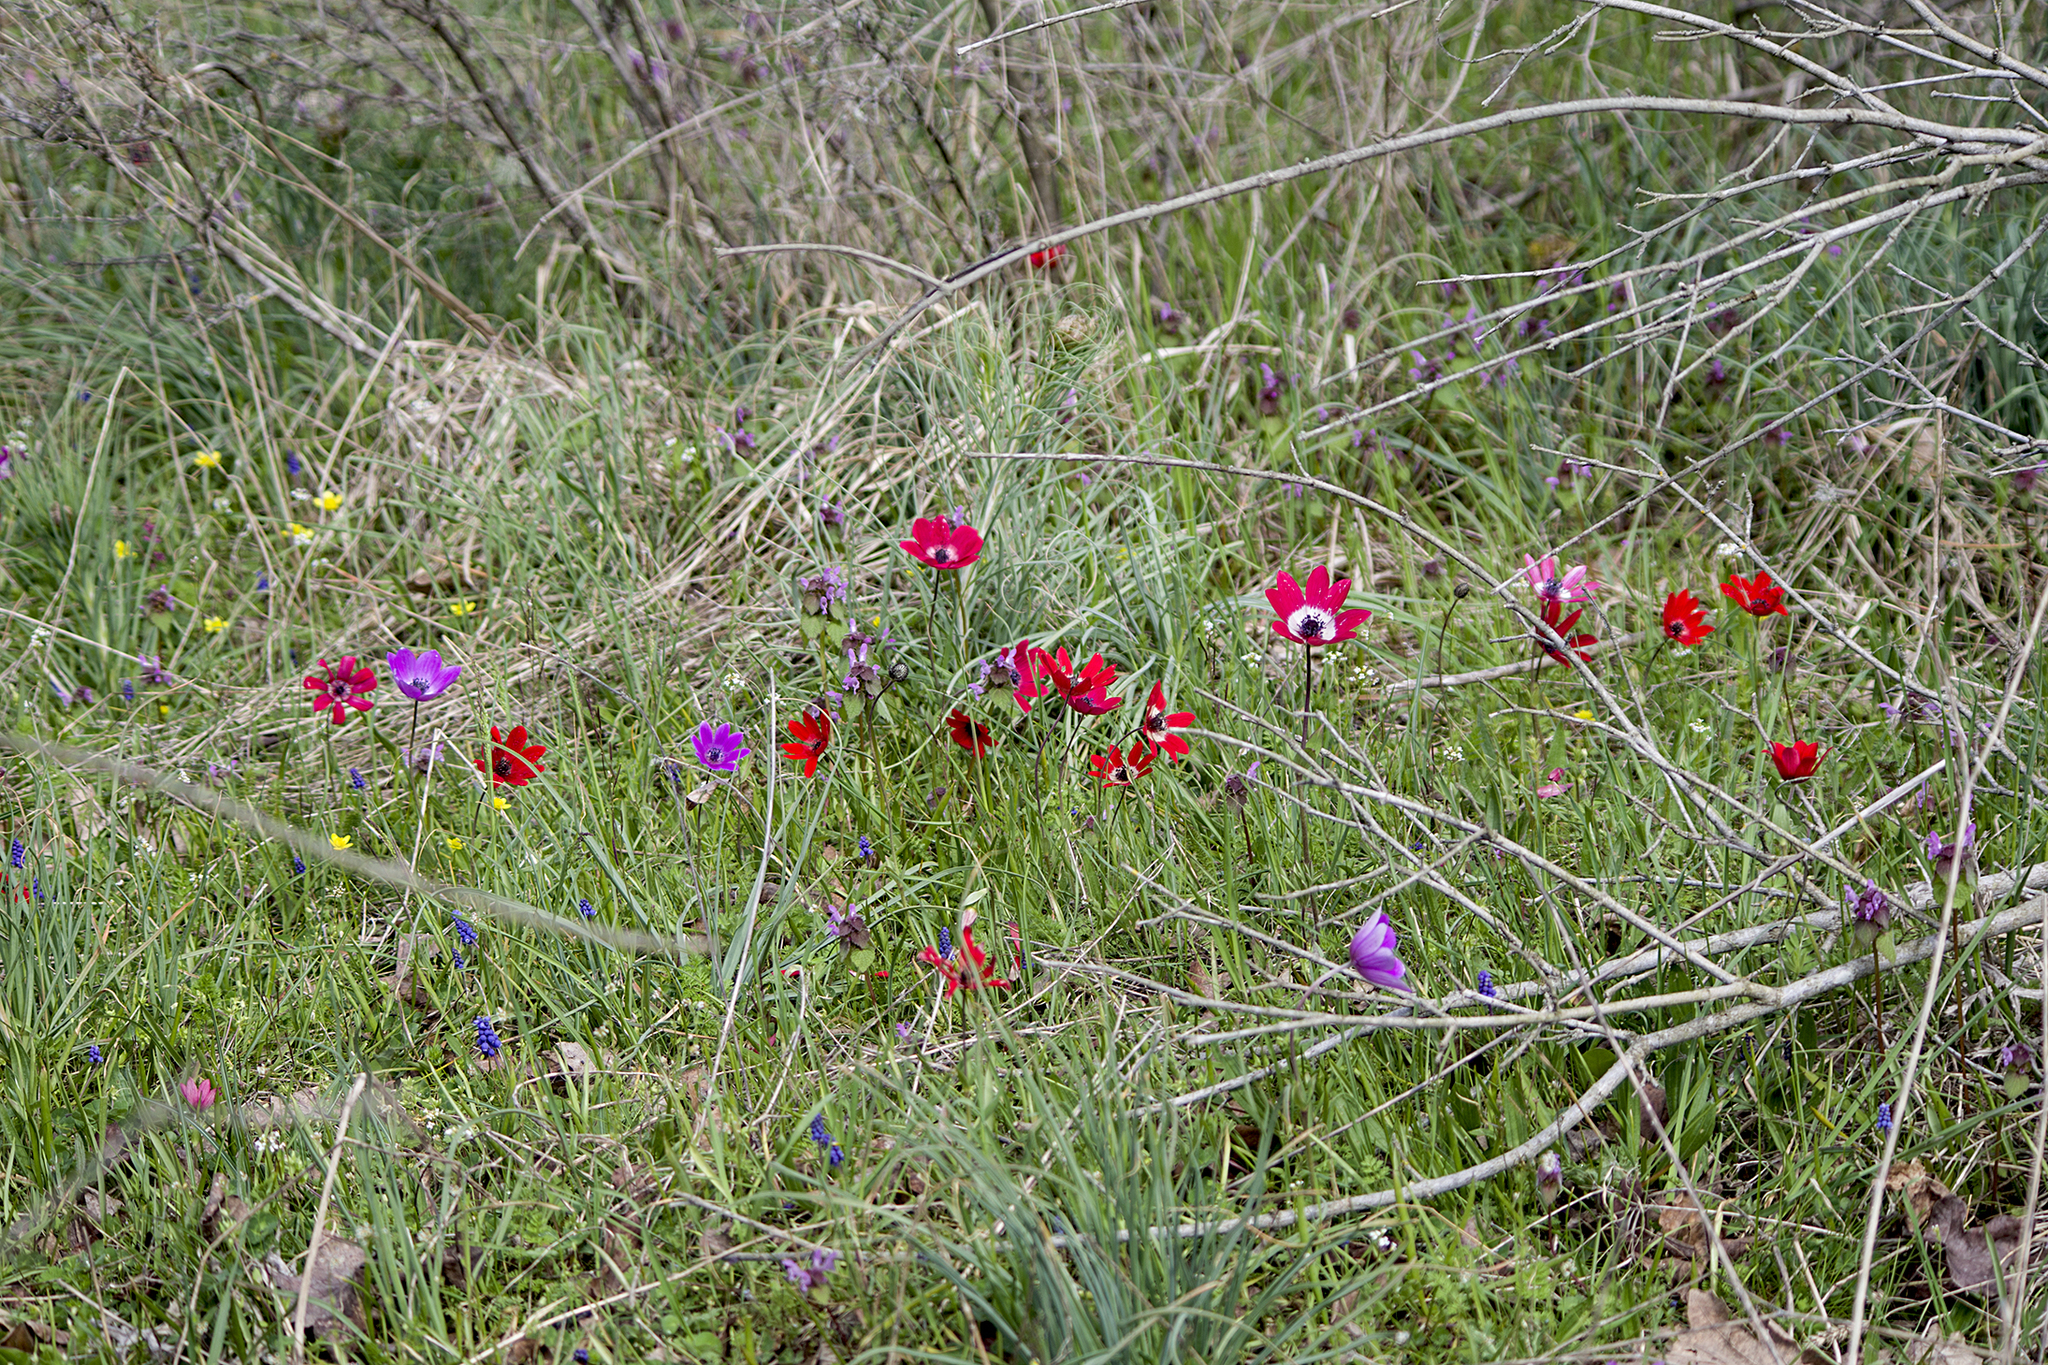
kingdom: Plantae
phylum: Tracheophyta
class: Magnoliopsida
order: Ranunculales
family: Ranunculaceae
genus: Anemone
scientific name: Anemone pavonina
